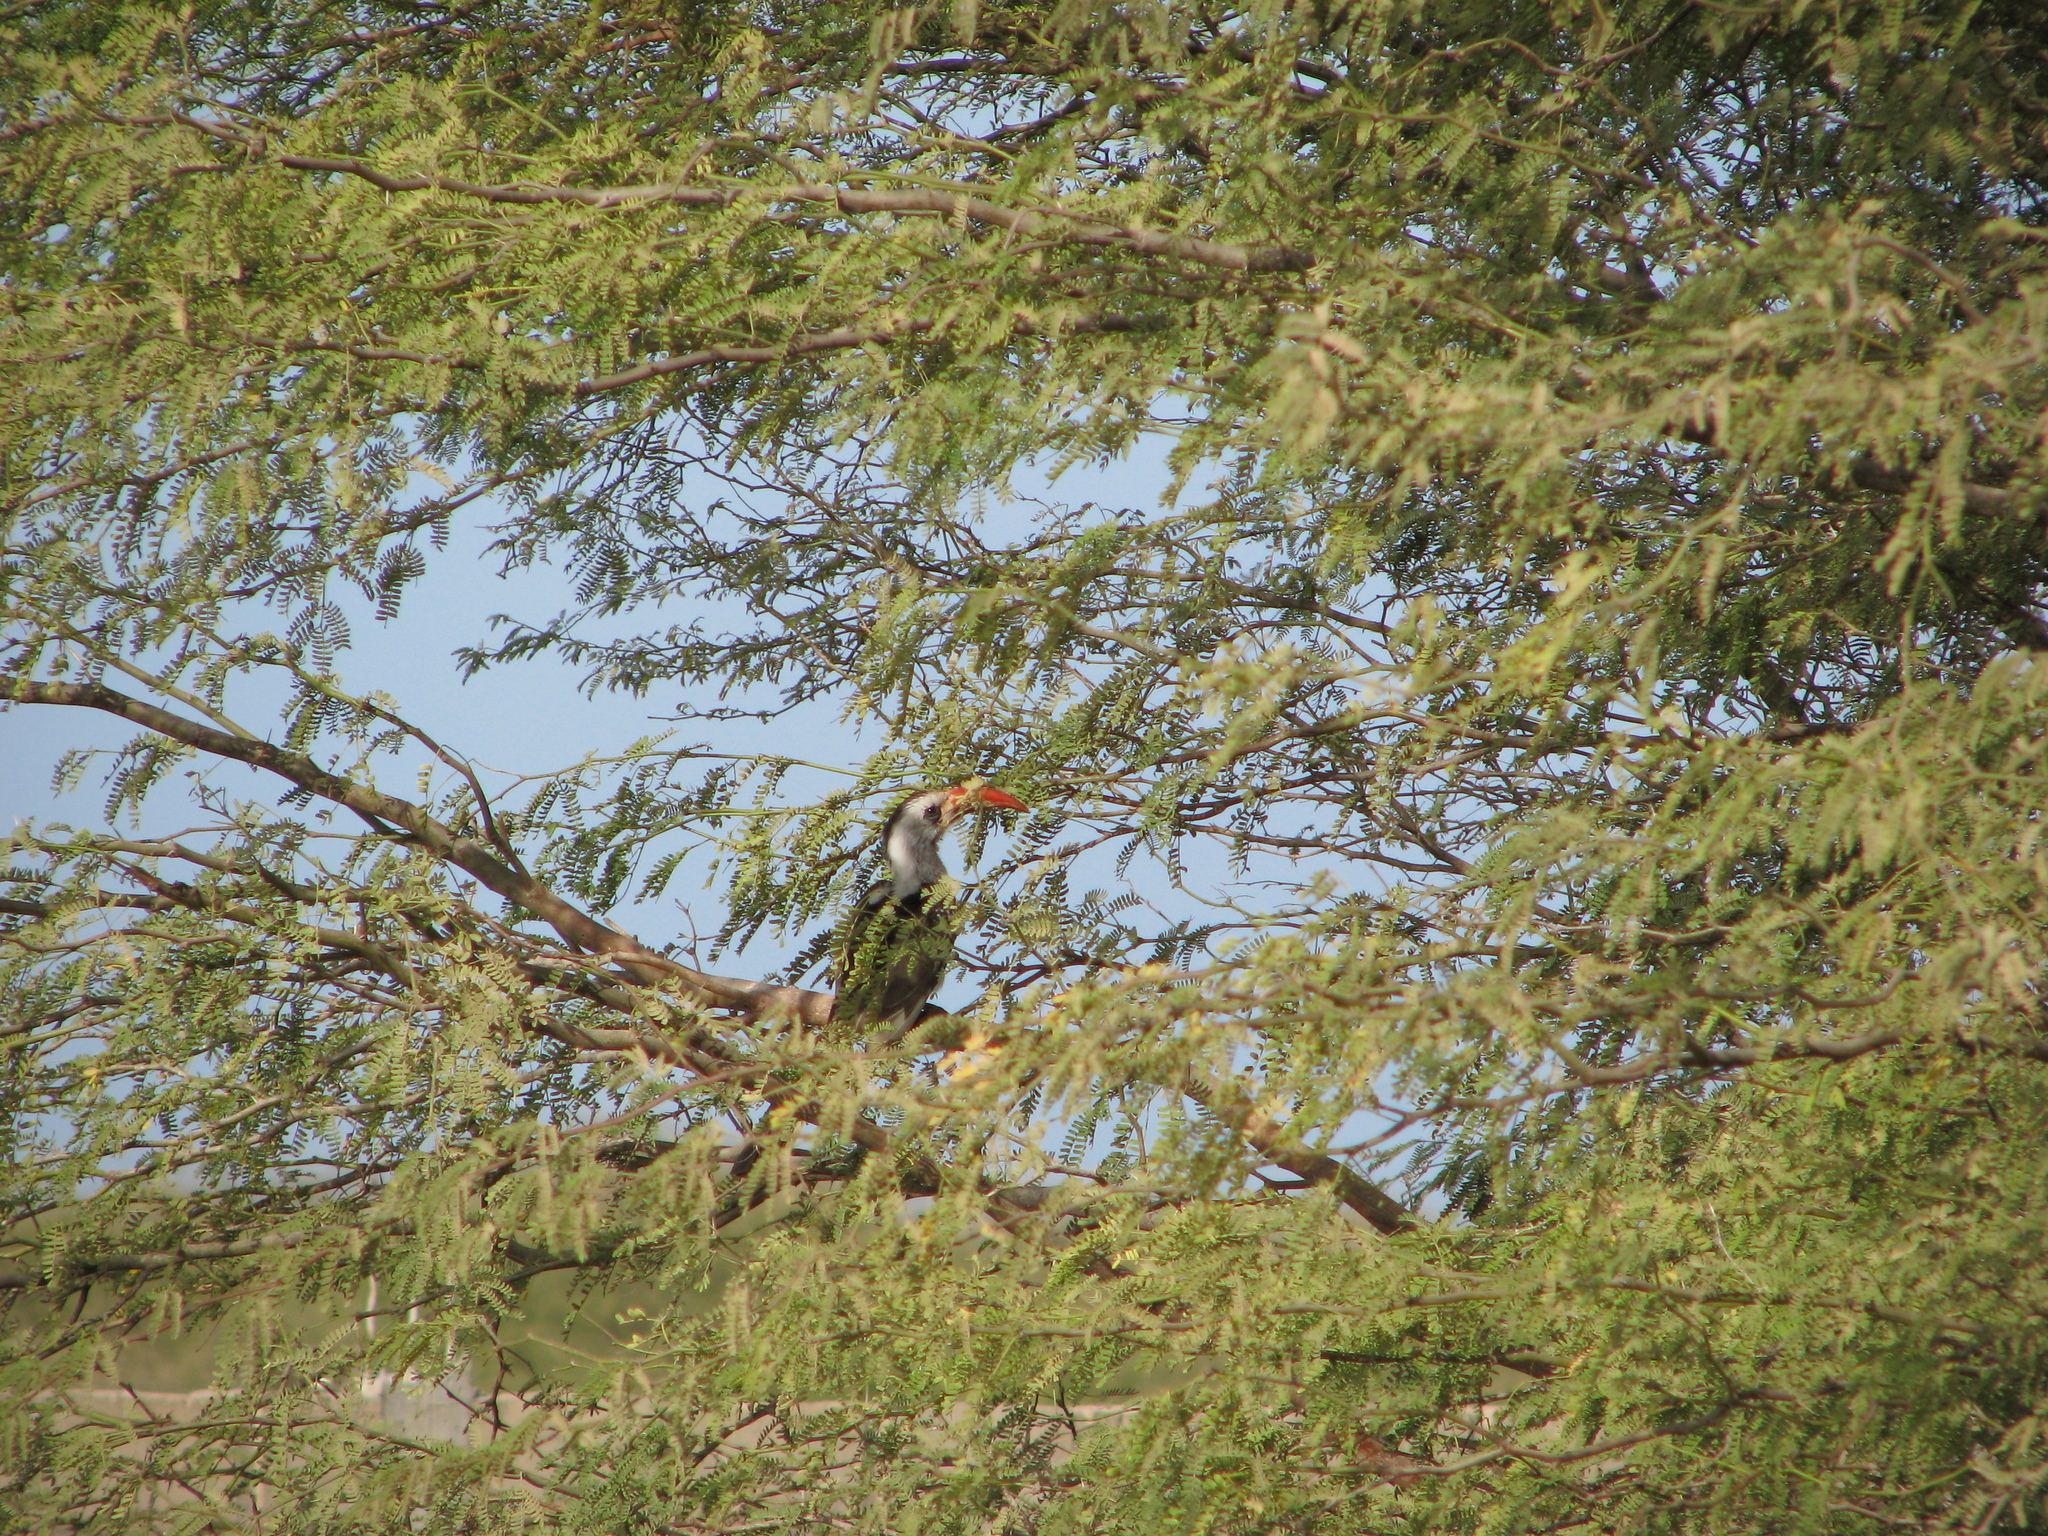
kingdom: Animalia
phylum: Chordata
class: Aves
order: Bucerotiformes
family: Bucerotidae
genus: Tockus
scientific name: Tockus kempi
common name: Western red-billed hornbill
